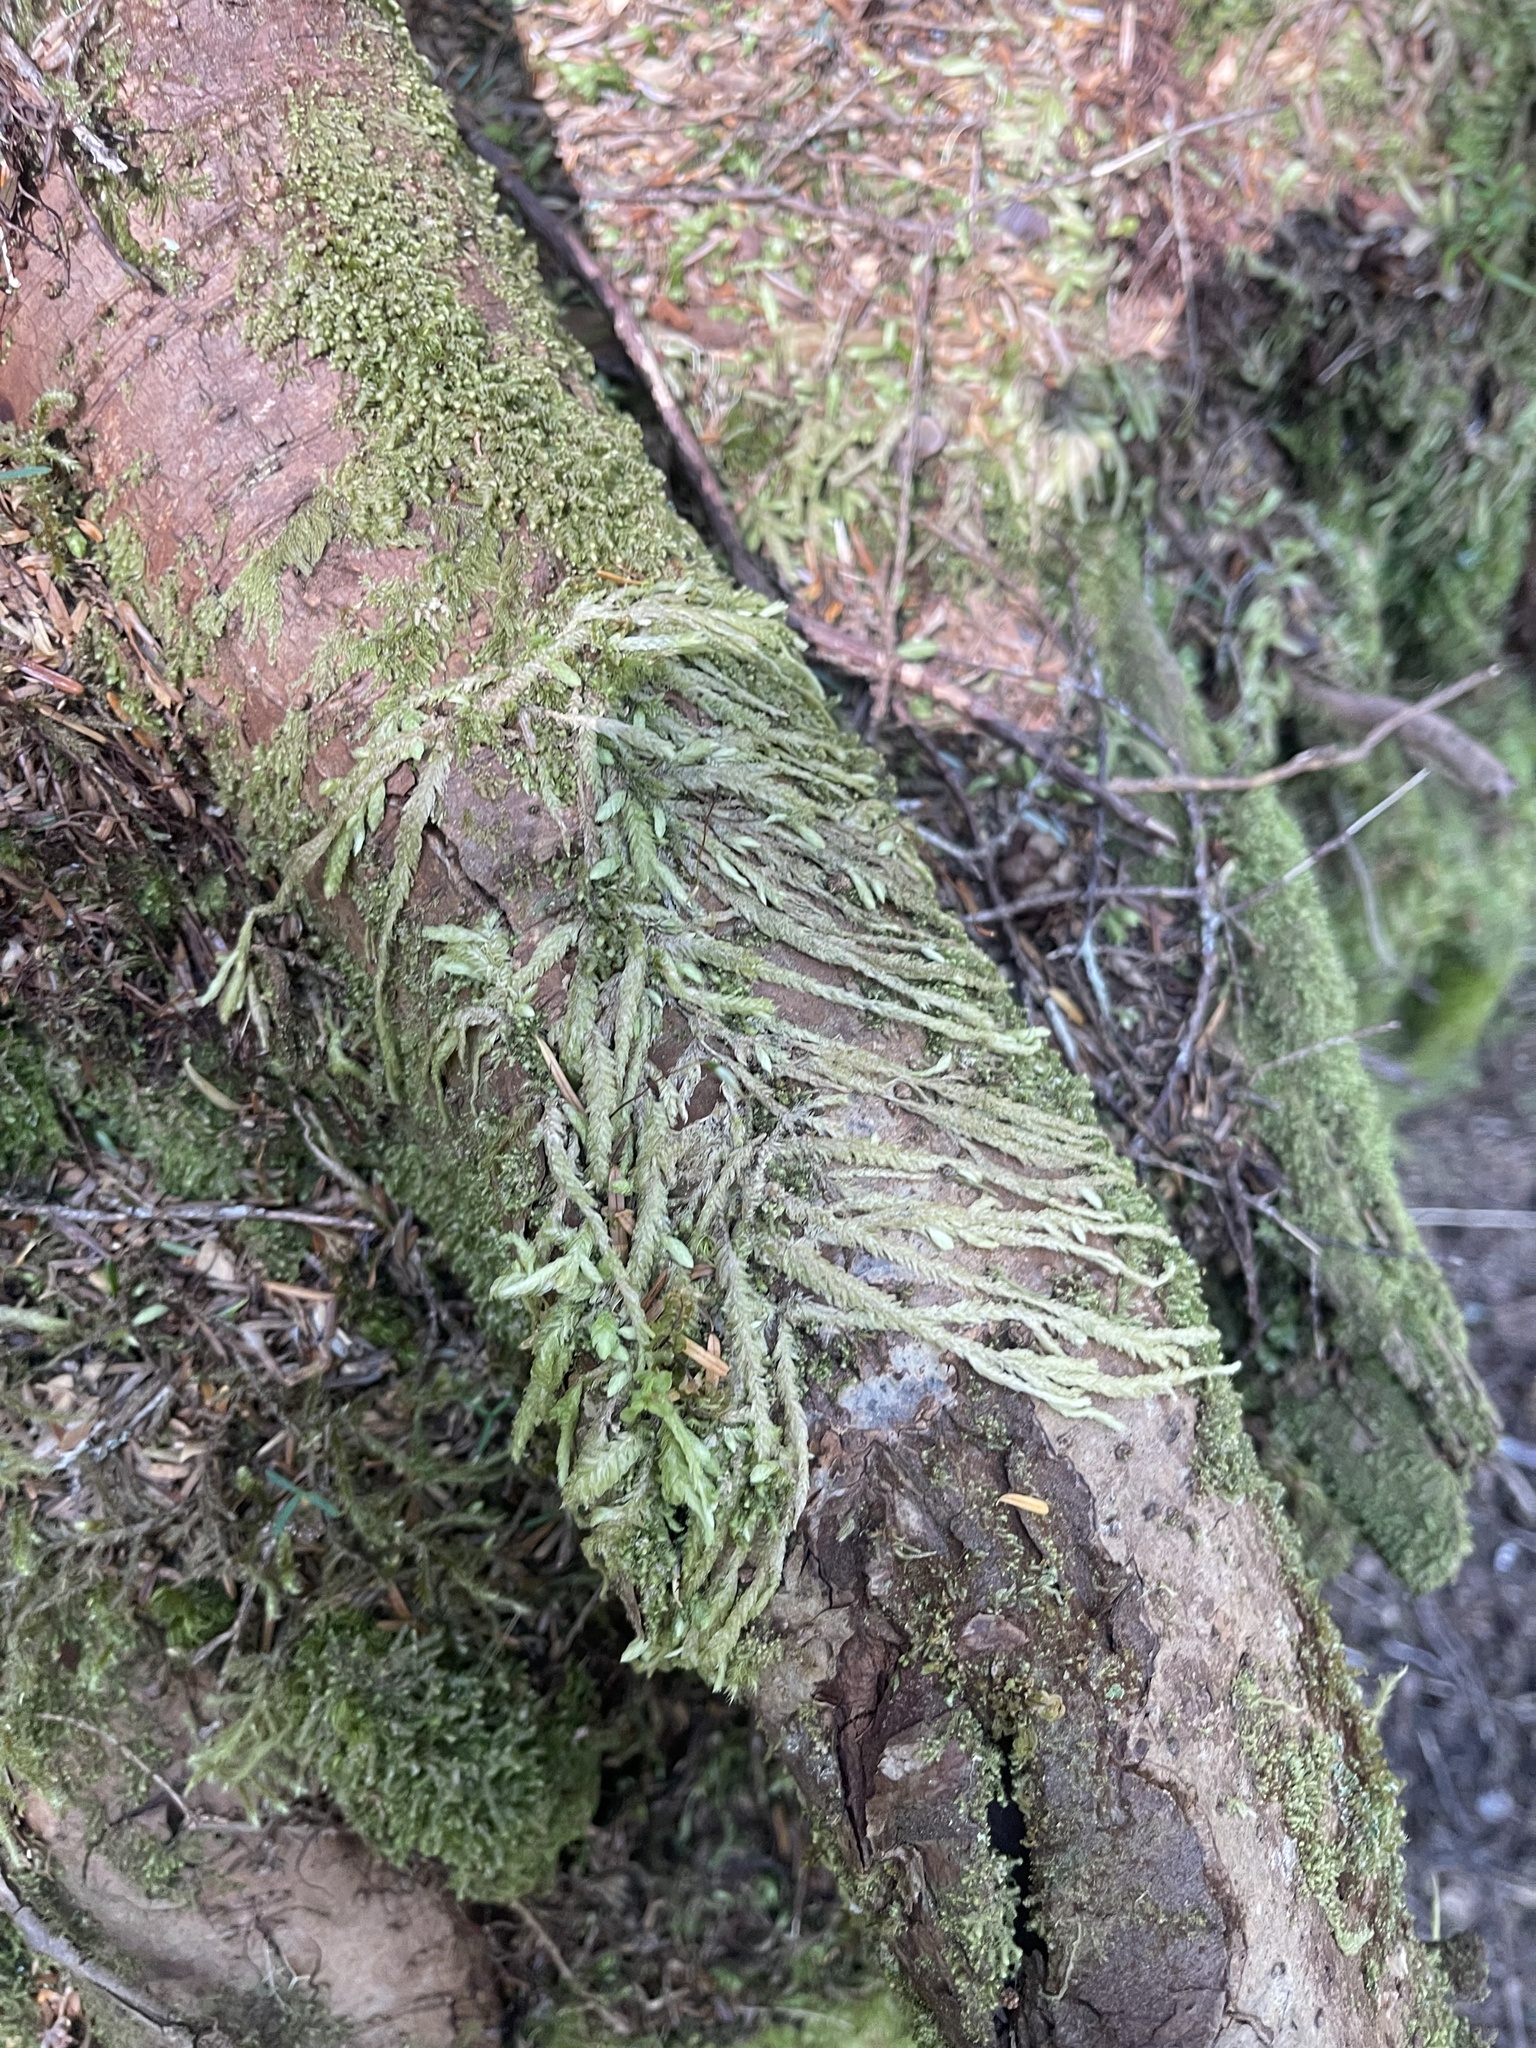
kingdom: Plantae
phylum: Bryophyta
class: Bryopsida
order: Hypnales
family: Plagiotheciaceae
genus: Plagiothecium
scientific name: Plagiothecium undulatum
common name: Waved silk-moss
